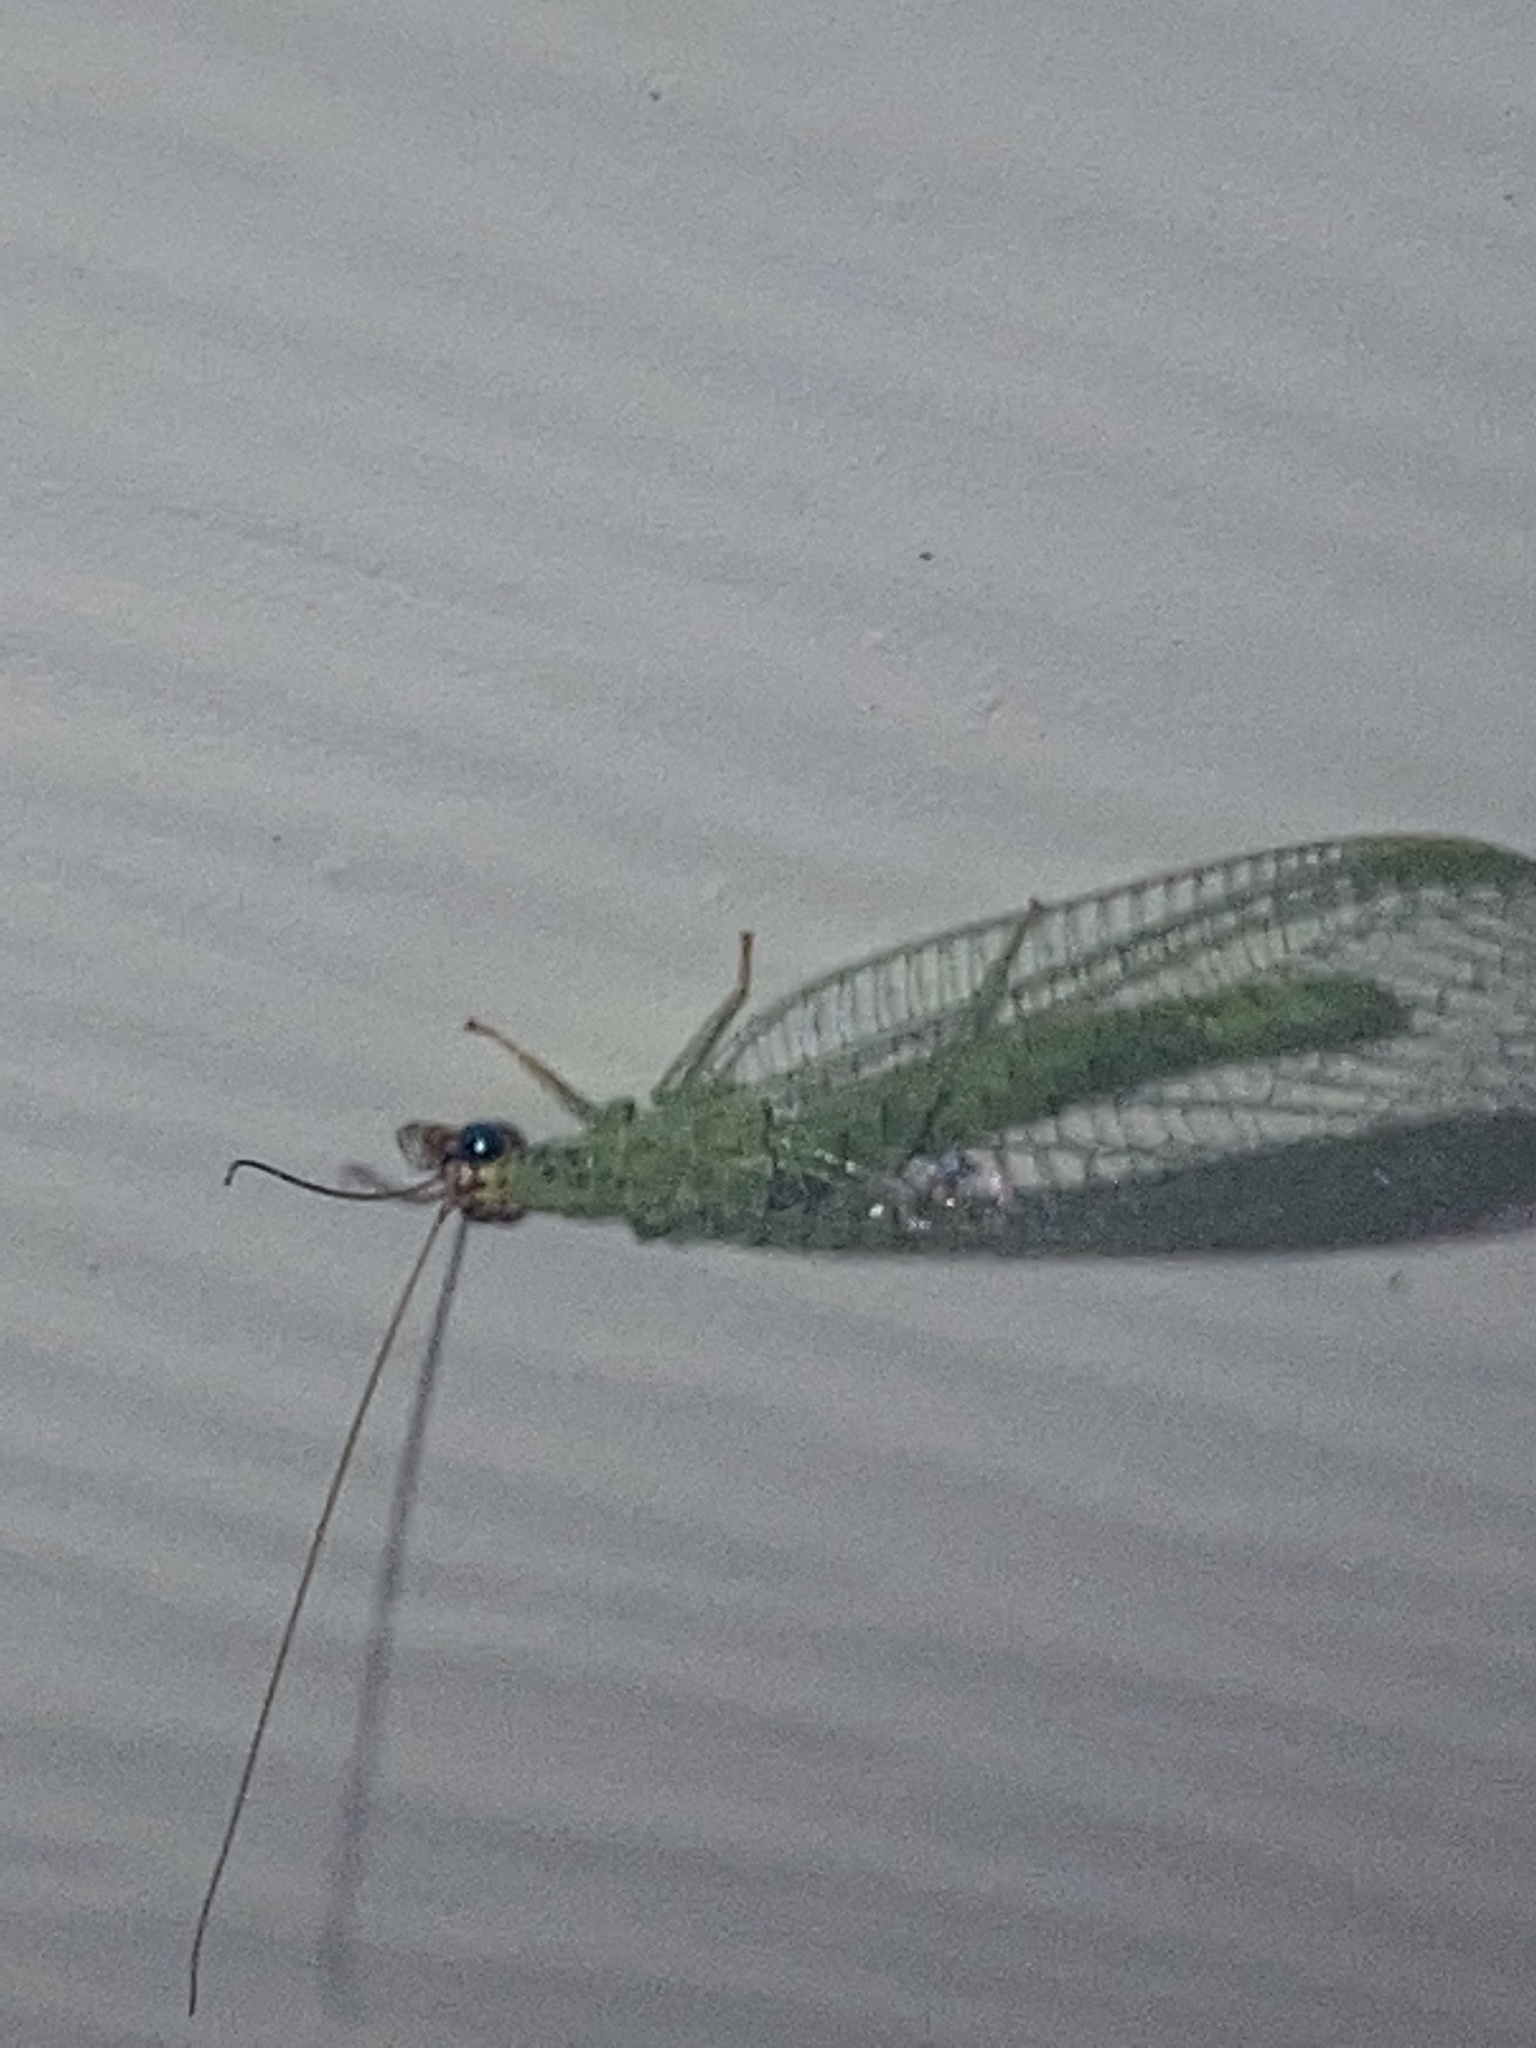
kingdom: Animalia
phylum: Arthropoda
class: Insecta
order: Neuroptera
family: Chrysopidae
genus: Chrysopa
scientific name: Chrysopa oculata
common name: Golden-eyed lacewing
